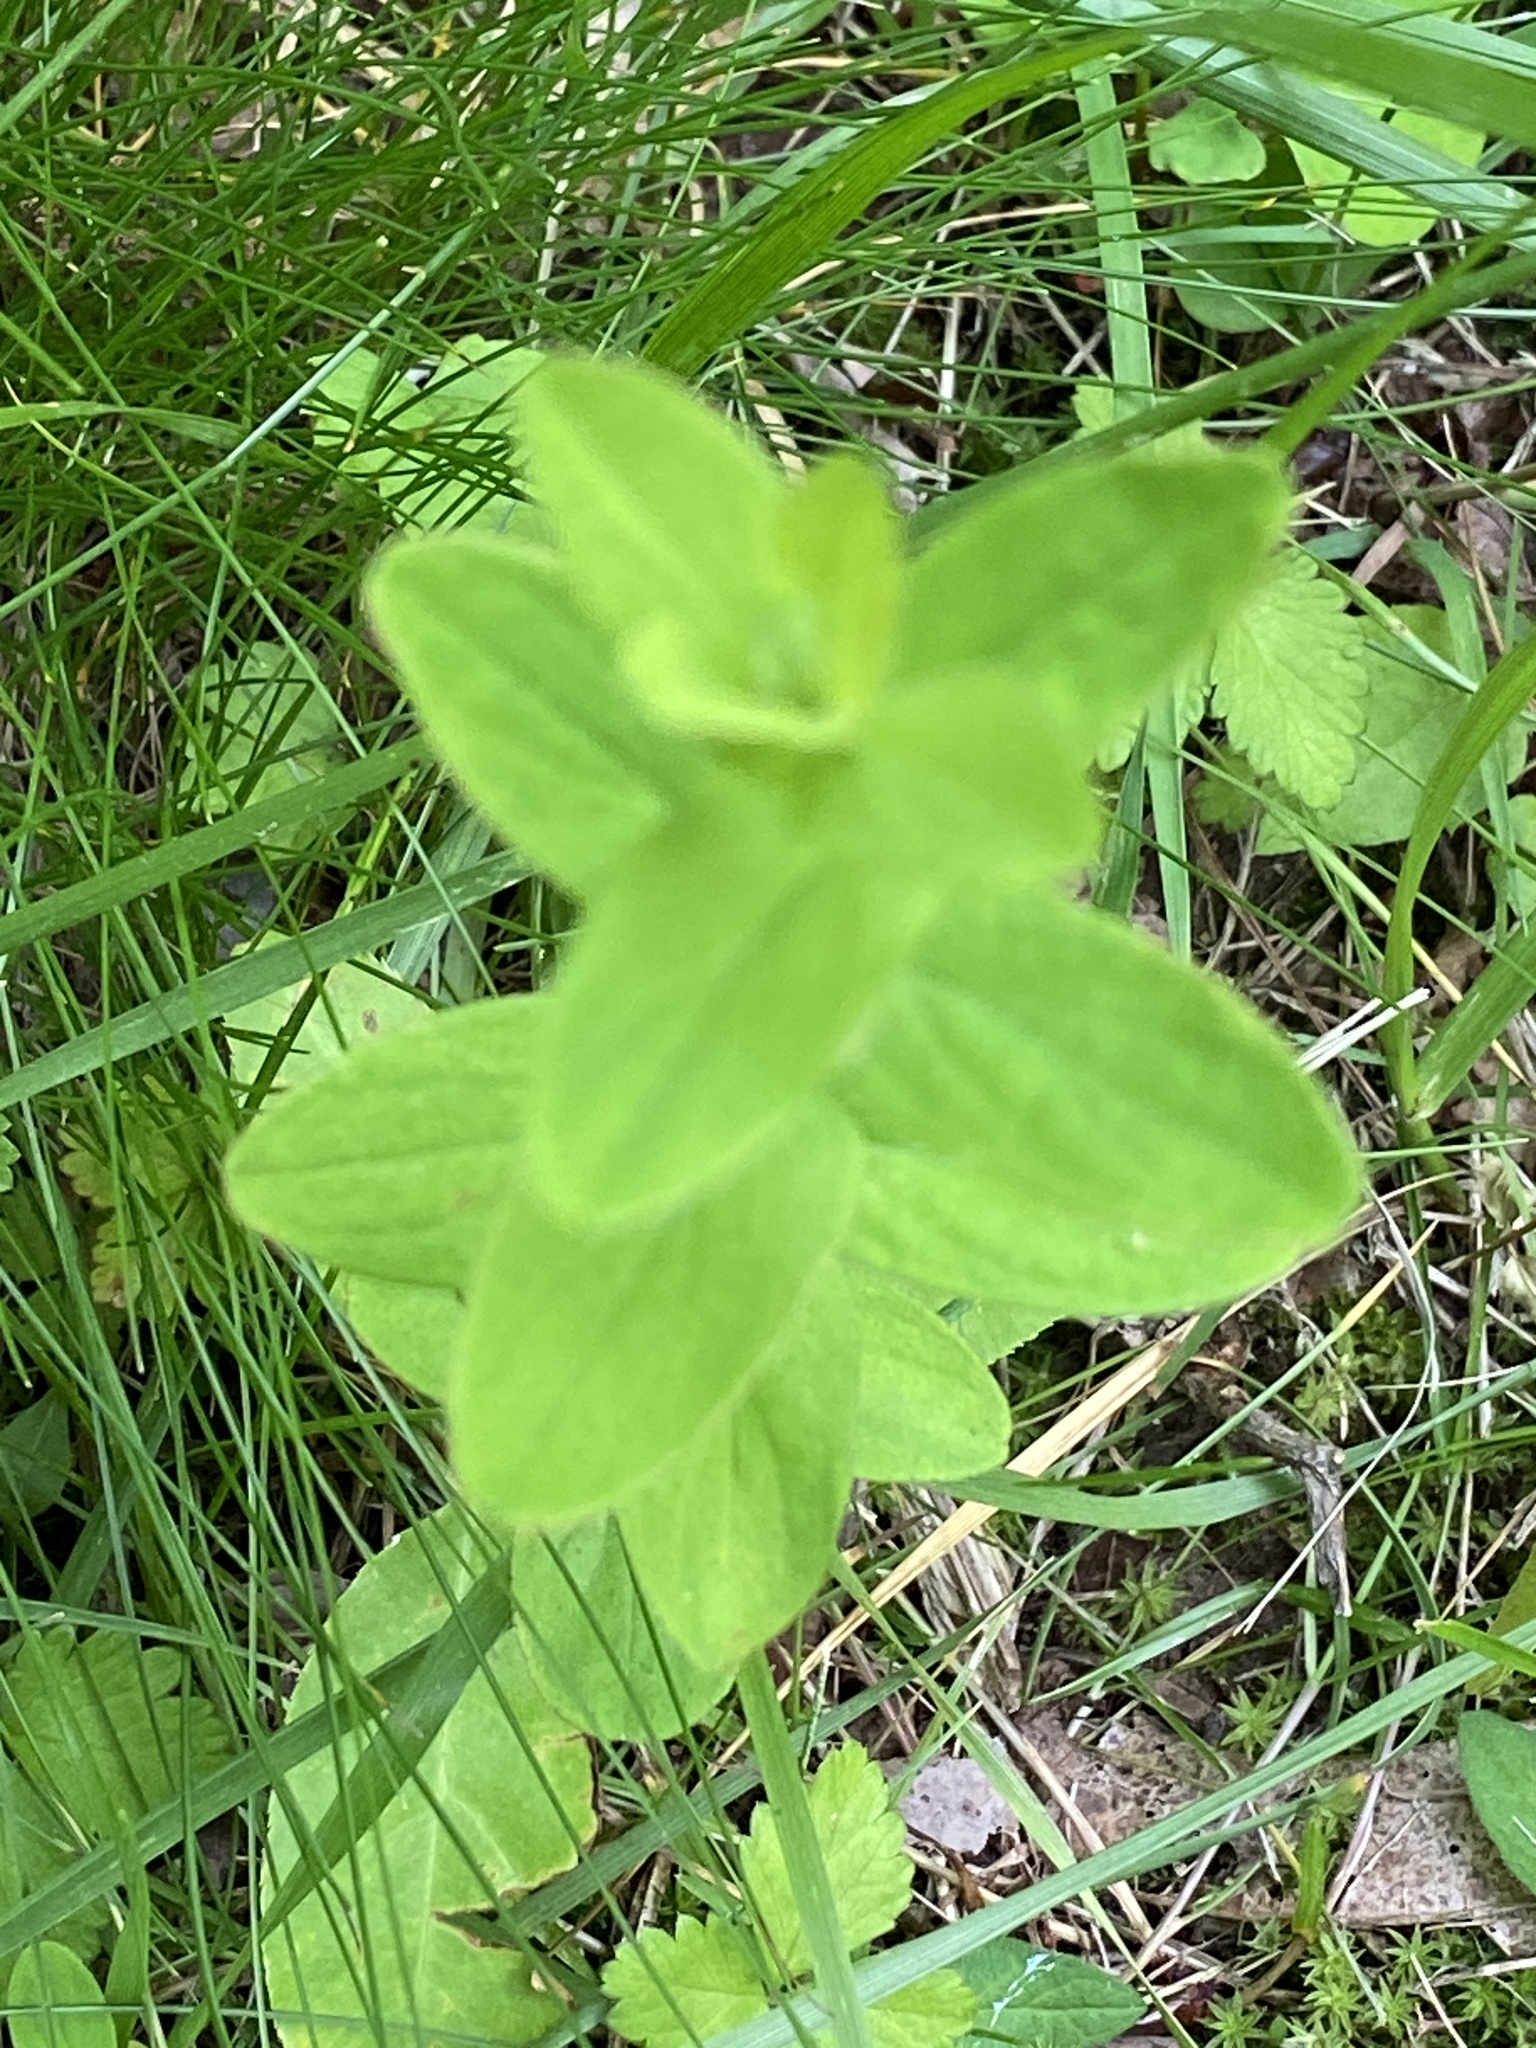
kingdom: Plantae
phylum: Tracheophyta
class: Magnoliopsida
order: Malpighiales
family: Hypericaceae
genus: Hypericum
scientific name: Hypericum punctatum
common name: Spotted st. john's-wort
